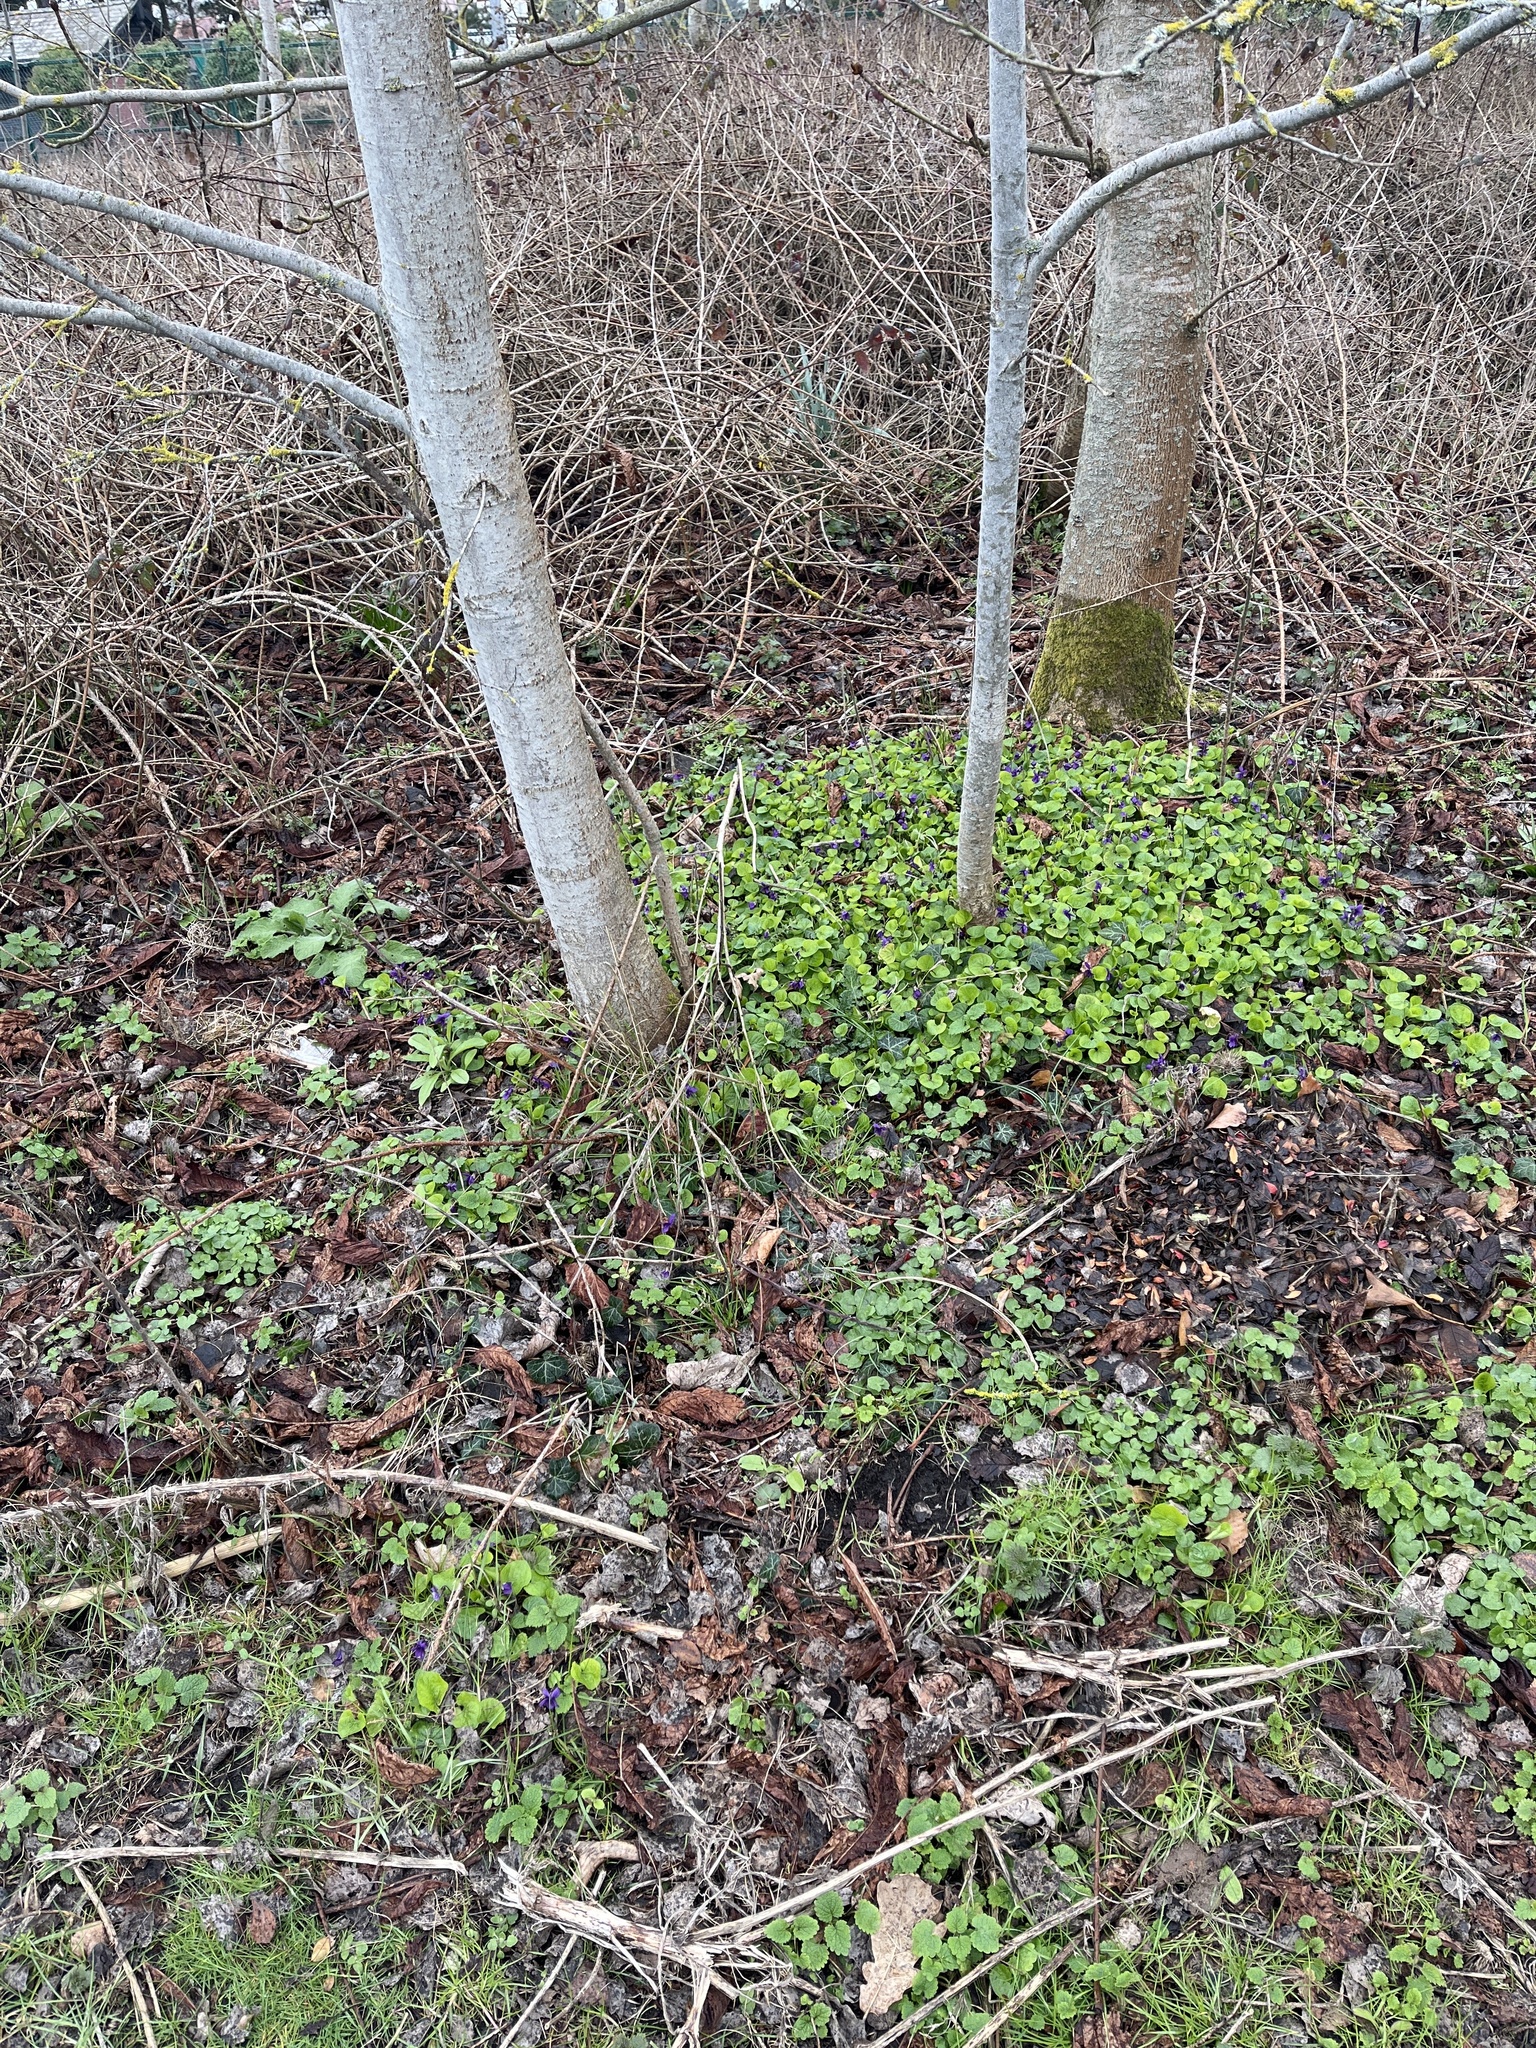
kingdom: Plantae
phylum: Tracheophyta
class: Magnoliopsida
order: Malpighiales
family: Violaceae
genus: Viola
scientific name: Viola odorata
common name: Sweet violet
